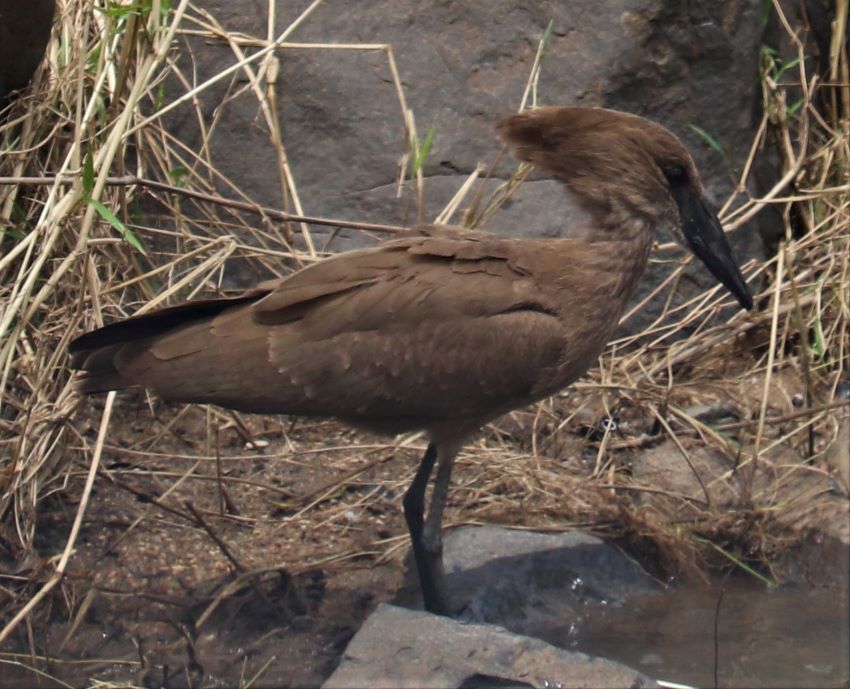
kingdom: Animalia
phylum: Chordata
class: Aves
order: Pelecaniformes
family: Scopidae
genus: Scopus
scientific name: Scopus umbretta
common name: Hamerkop
